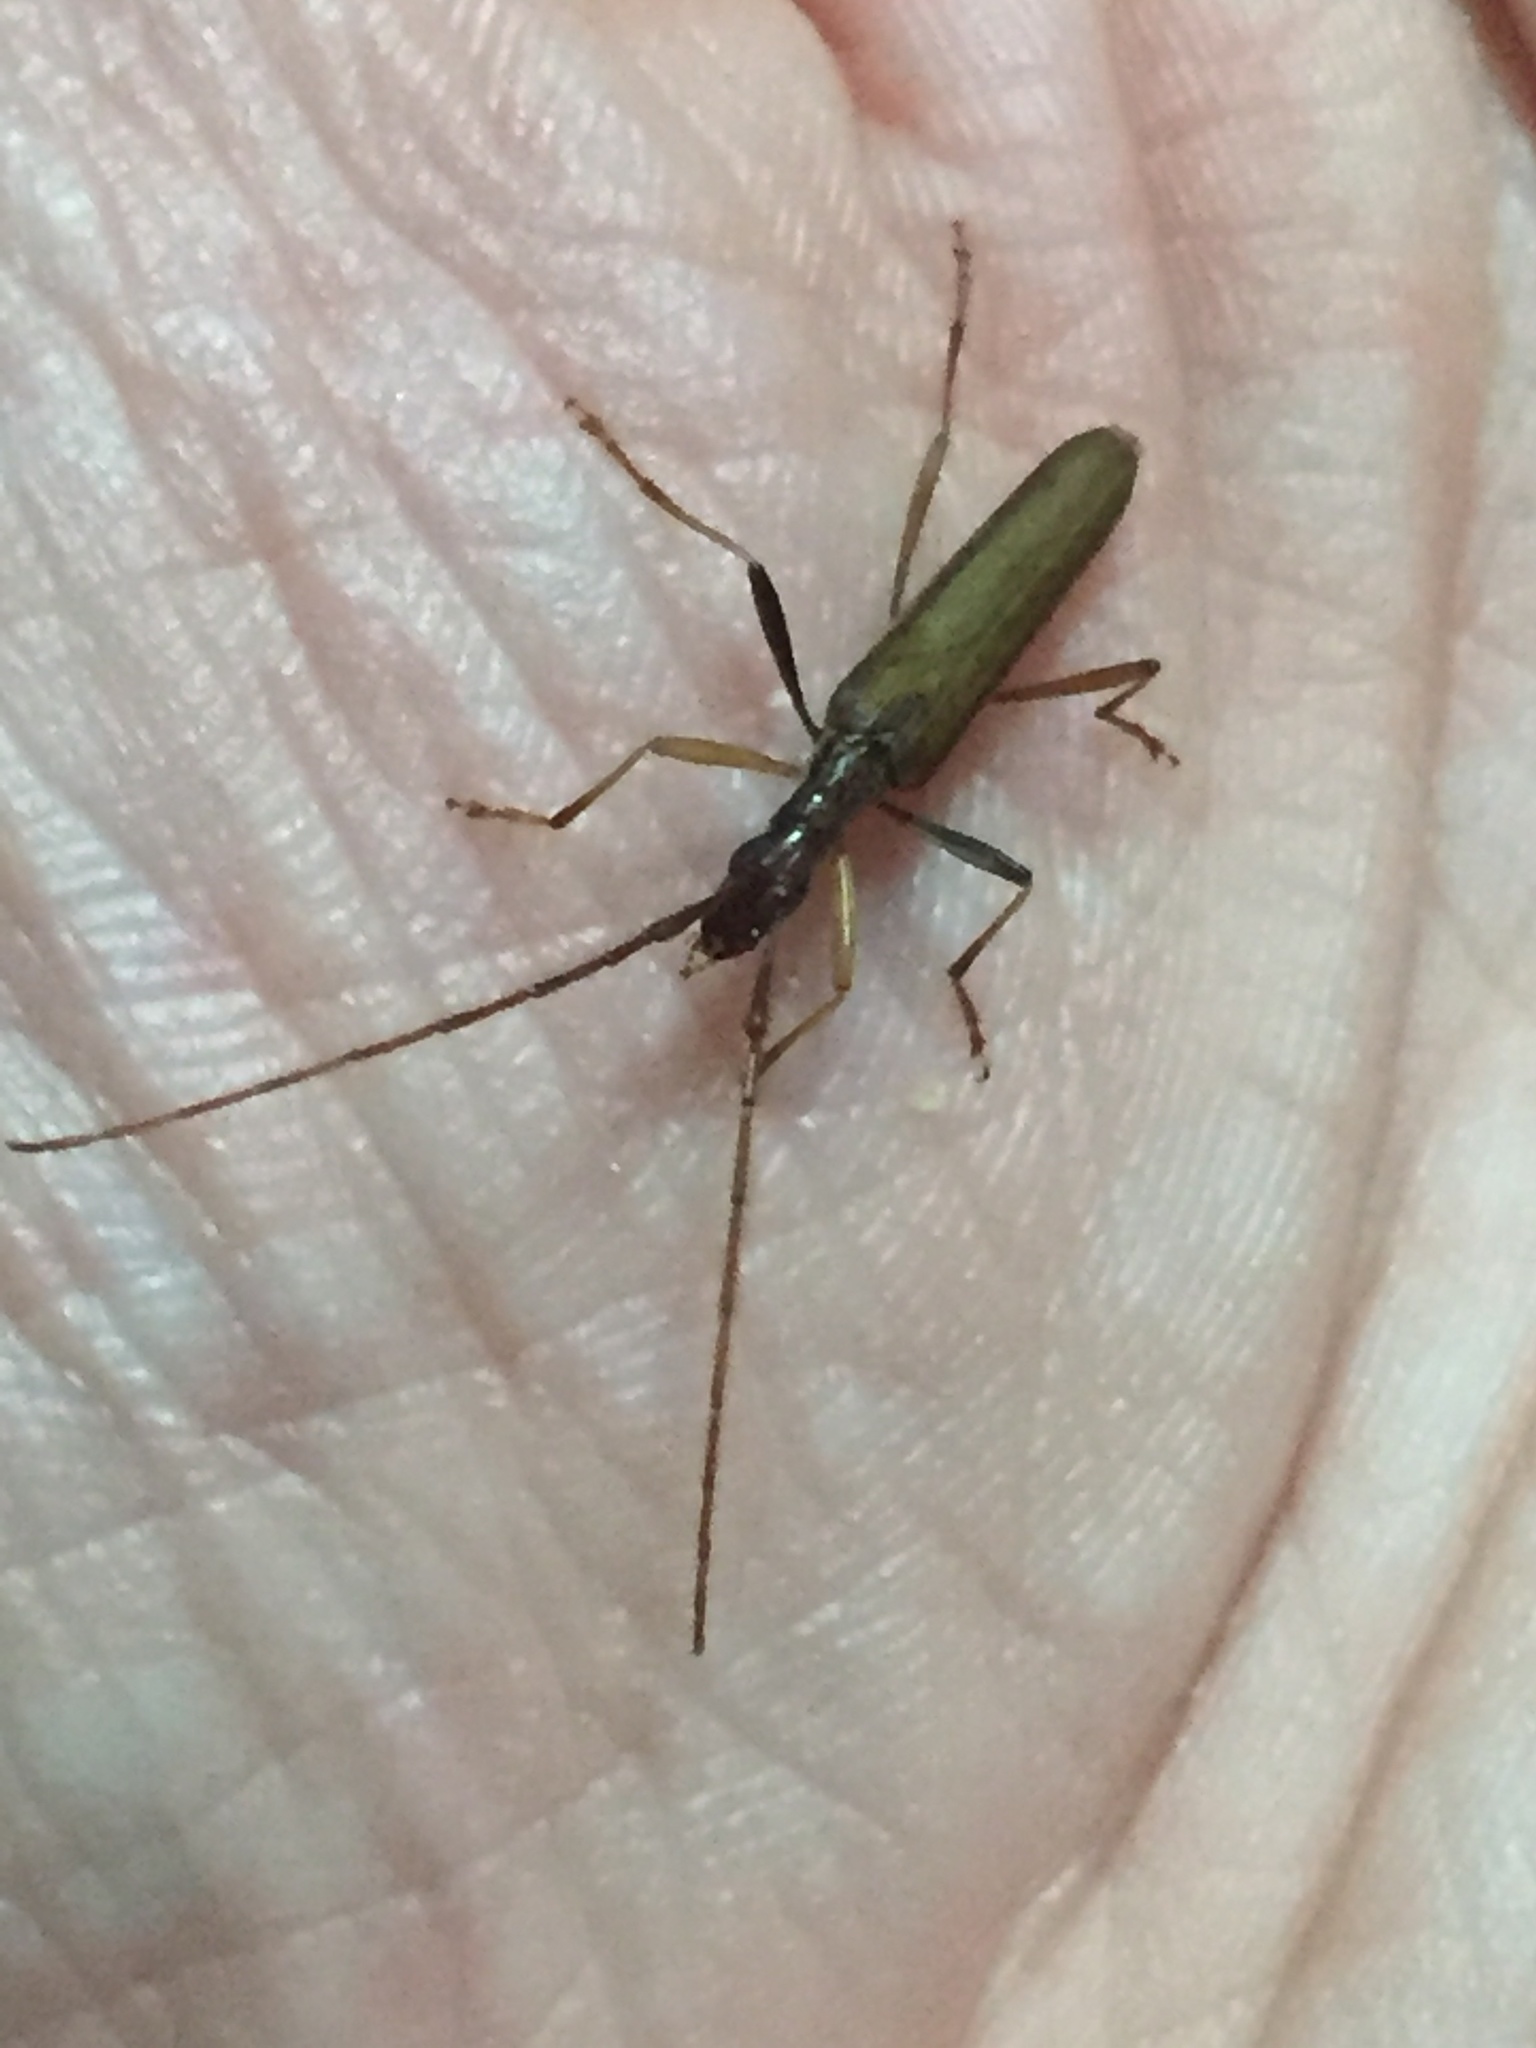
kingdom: Animalia
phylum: Arthropoda
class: Insecta
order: Coleoptera
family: Cerambycidae
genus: Stenopotes
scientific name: Stenopotes pallidus
